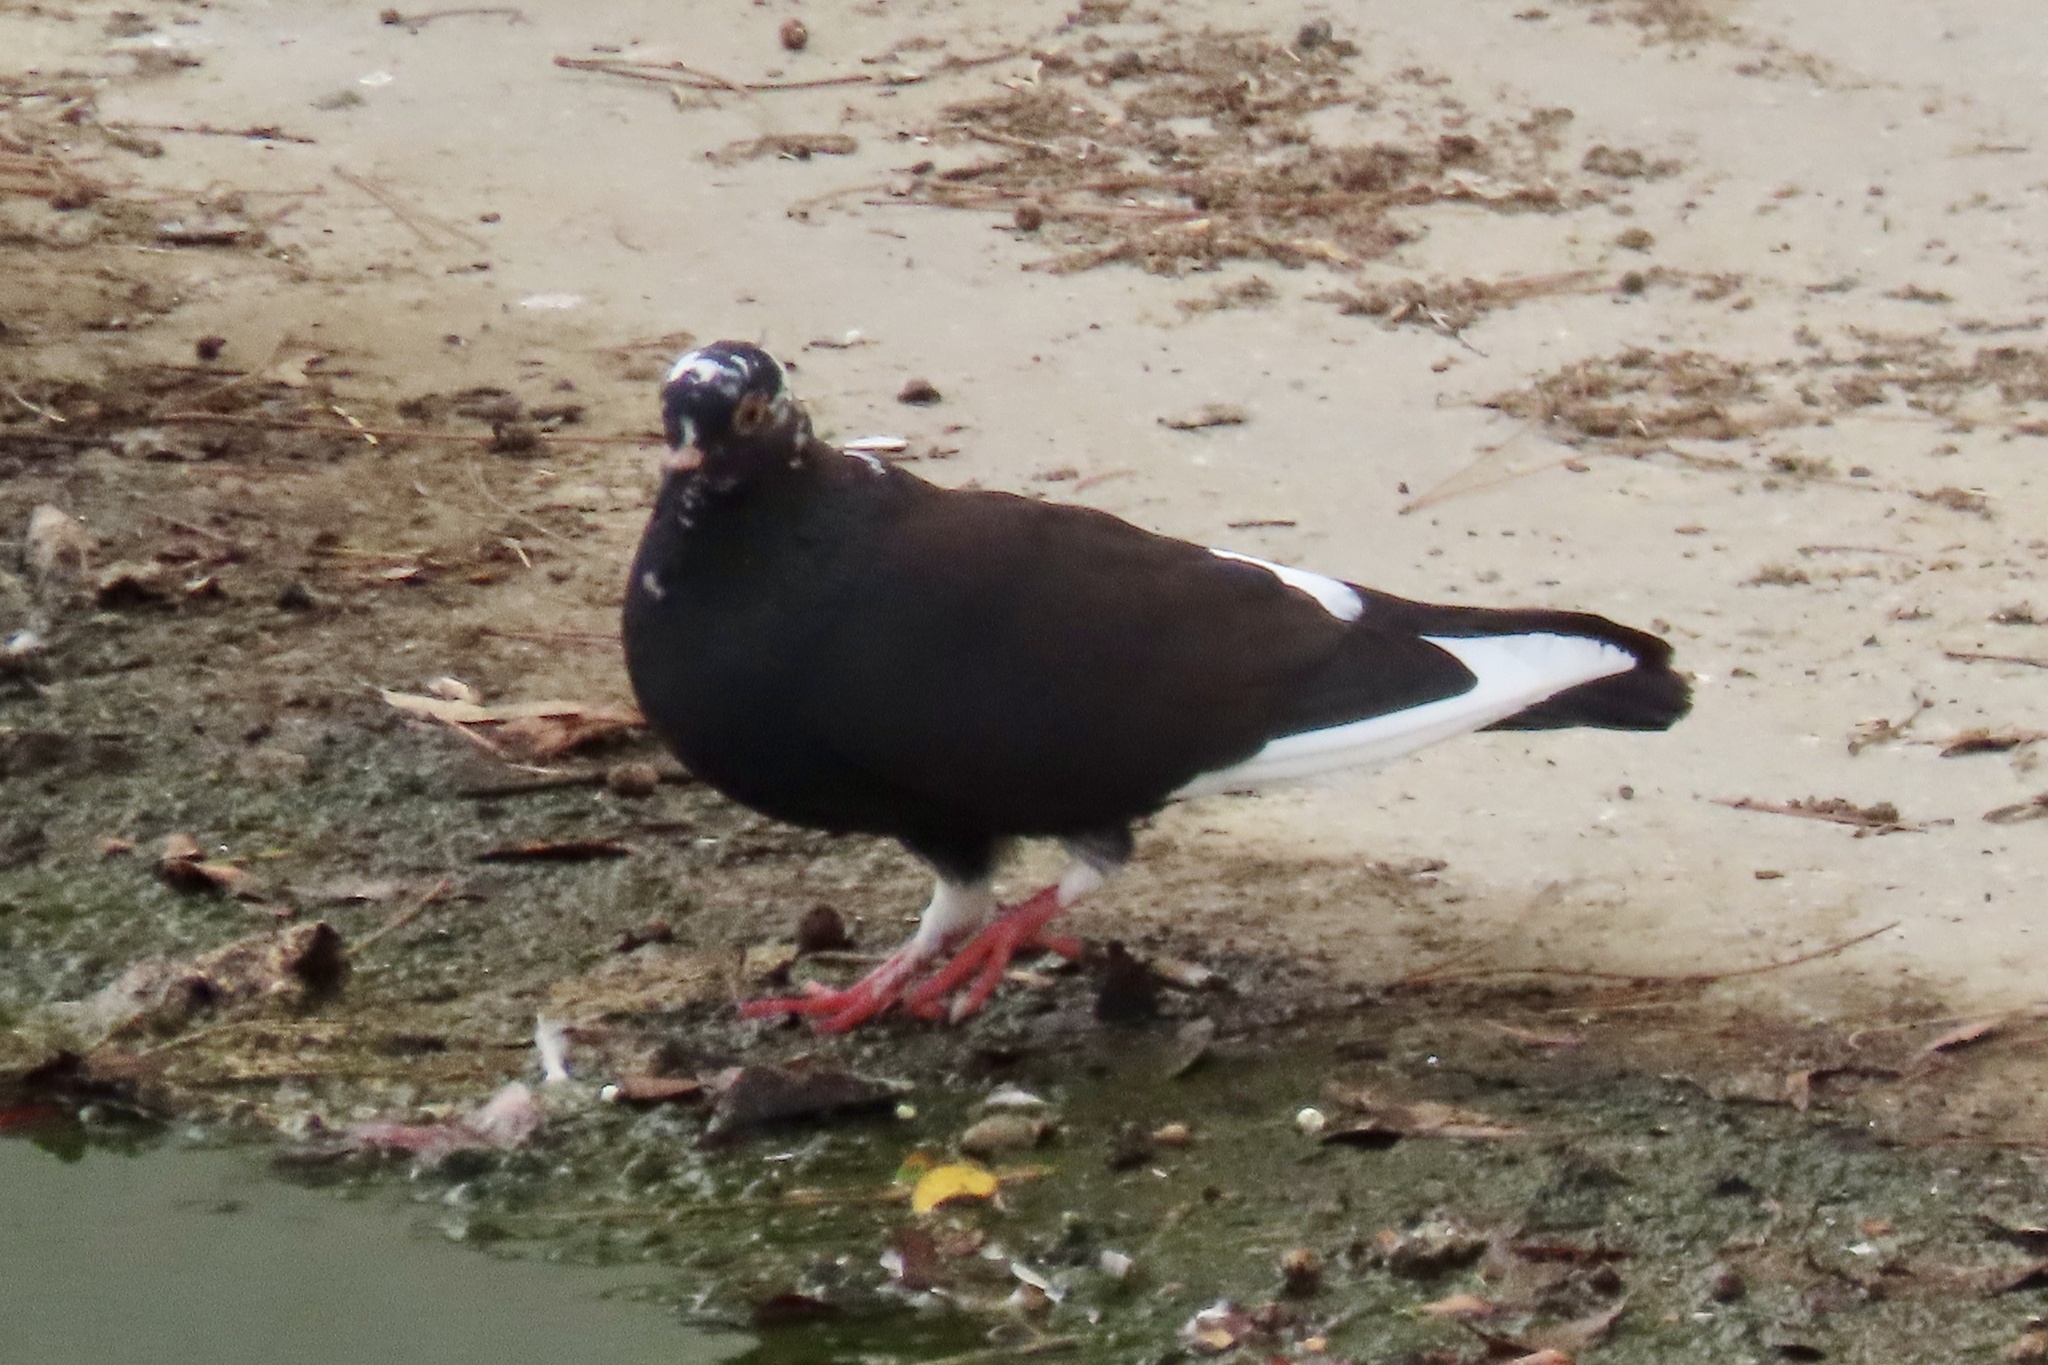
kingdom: Animalia
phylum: Chordata
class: Aves
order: Columbiformes
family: Columbidae
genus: Columba
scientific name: Columba livia
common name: Rock pigeon
